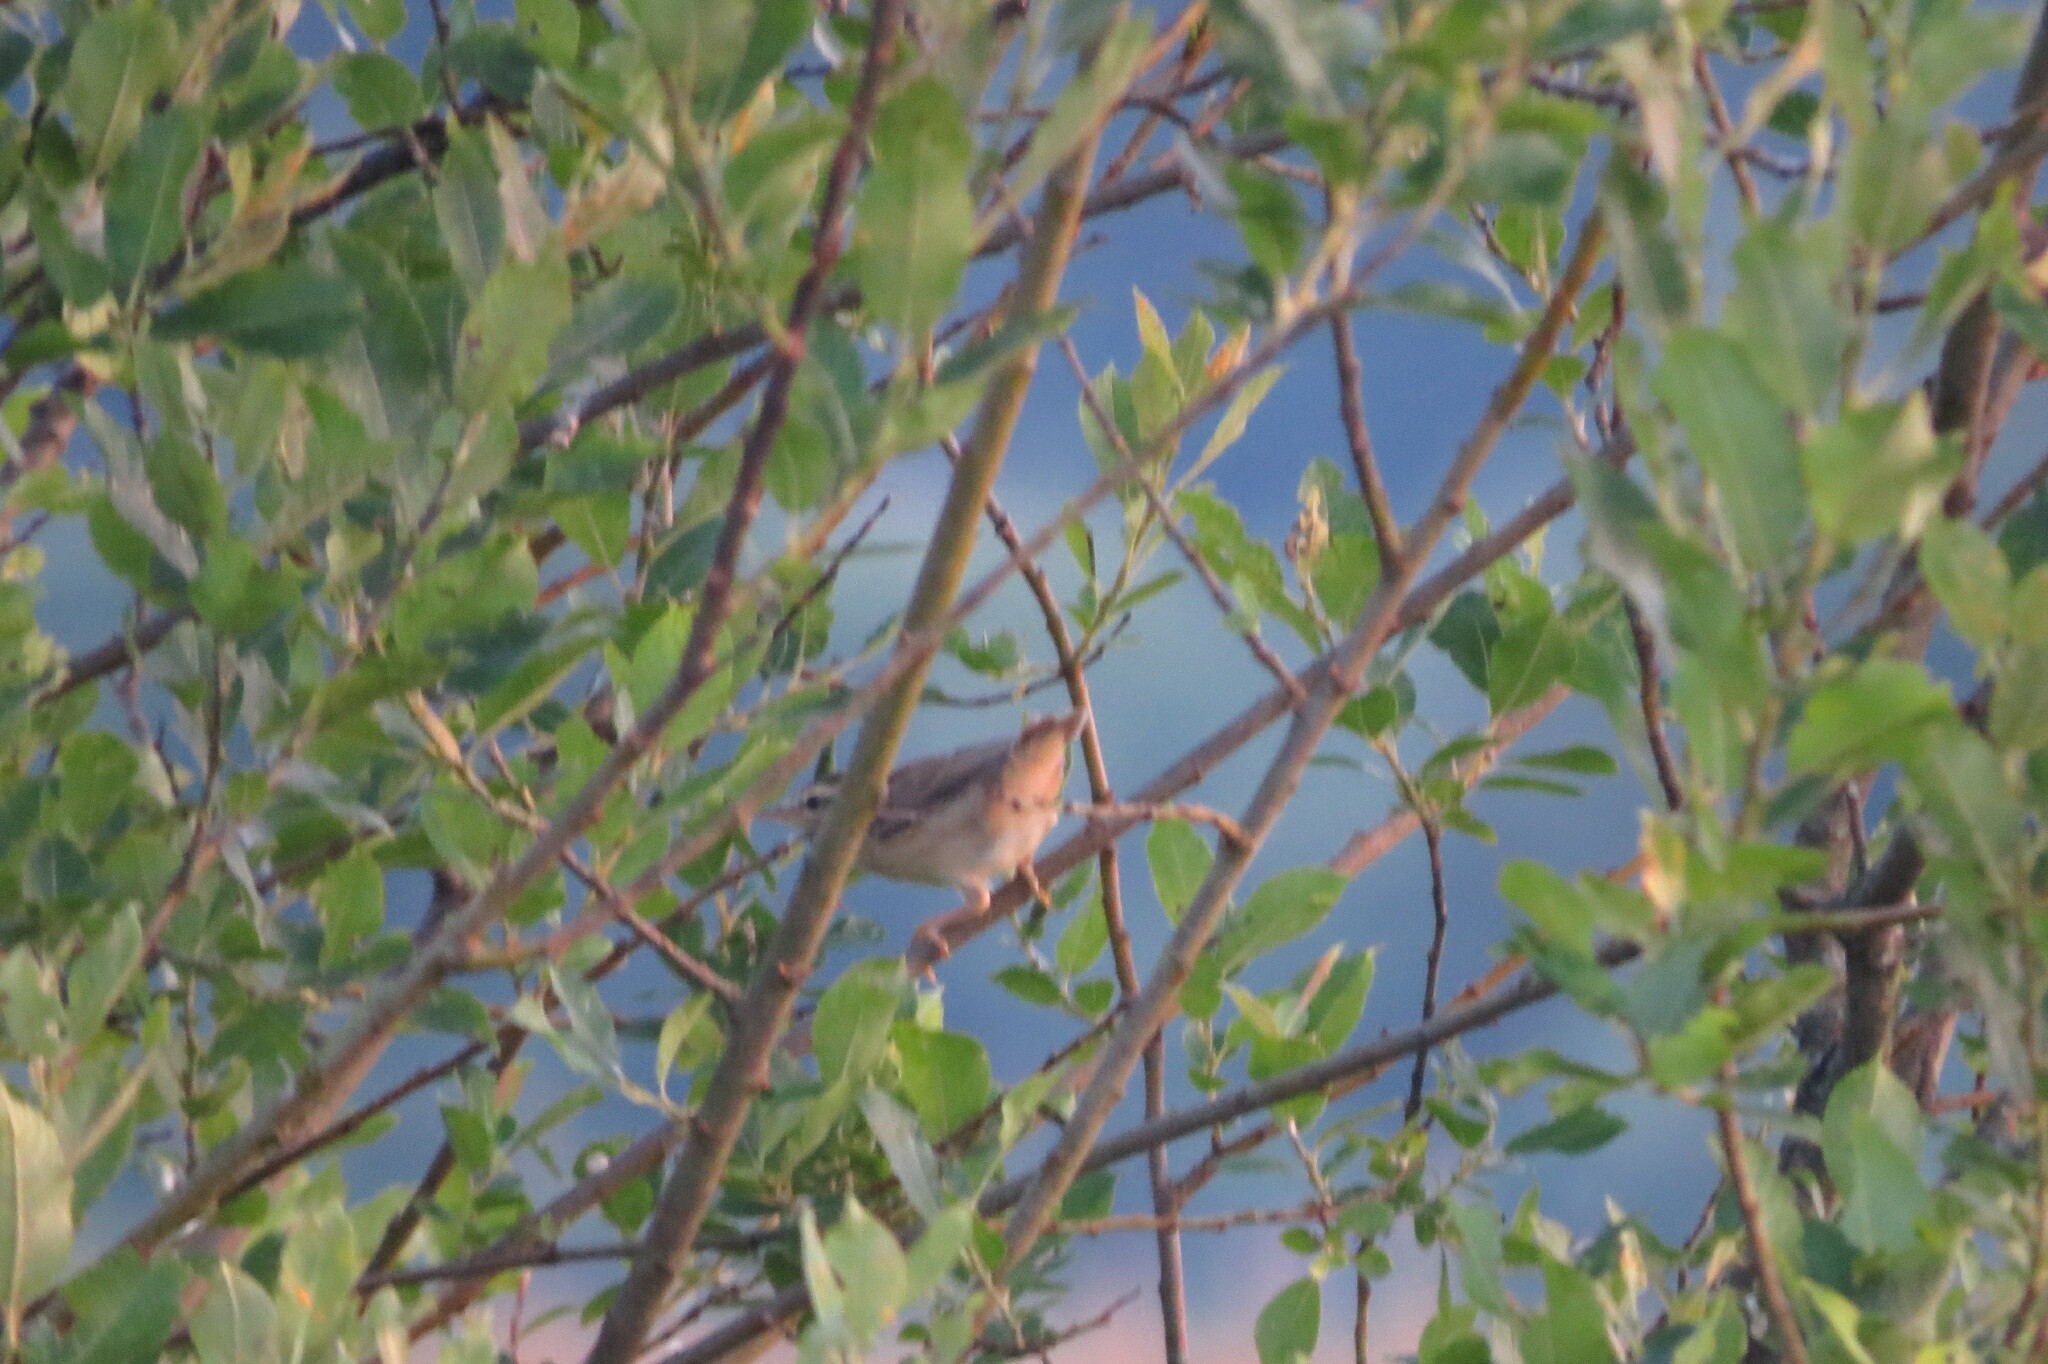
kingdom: Animalia
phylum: Chordata
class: Aves
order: Passeriformes
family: Acrocephalidae
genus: Acrocephalus
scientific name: Acrocephalus schoenobaenus
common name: Sedge warbler
